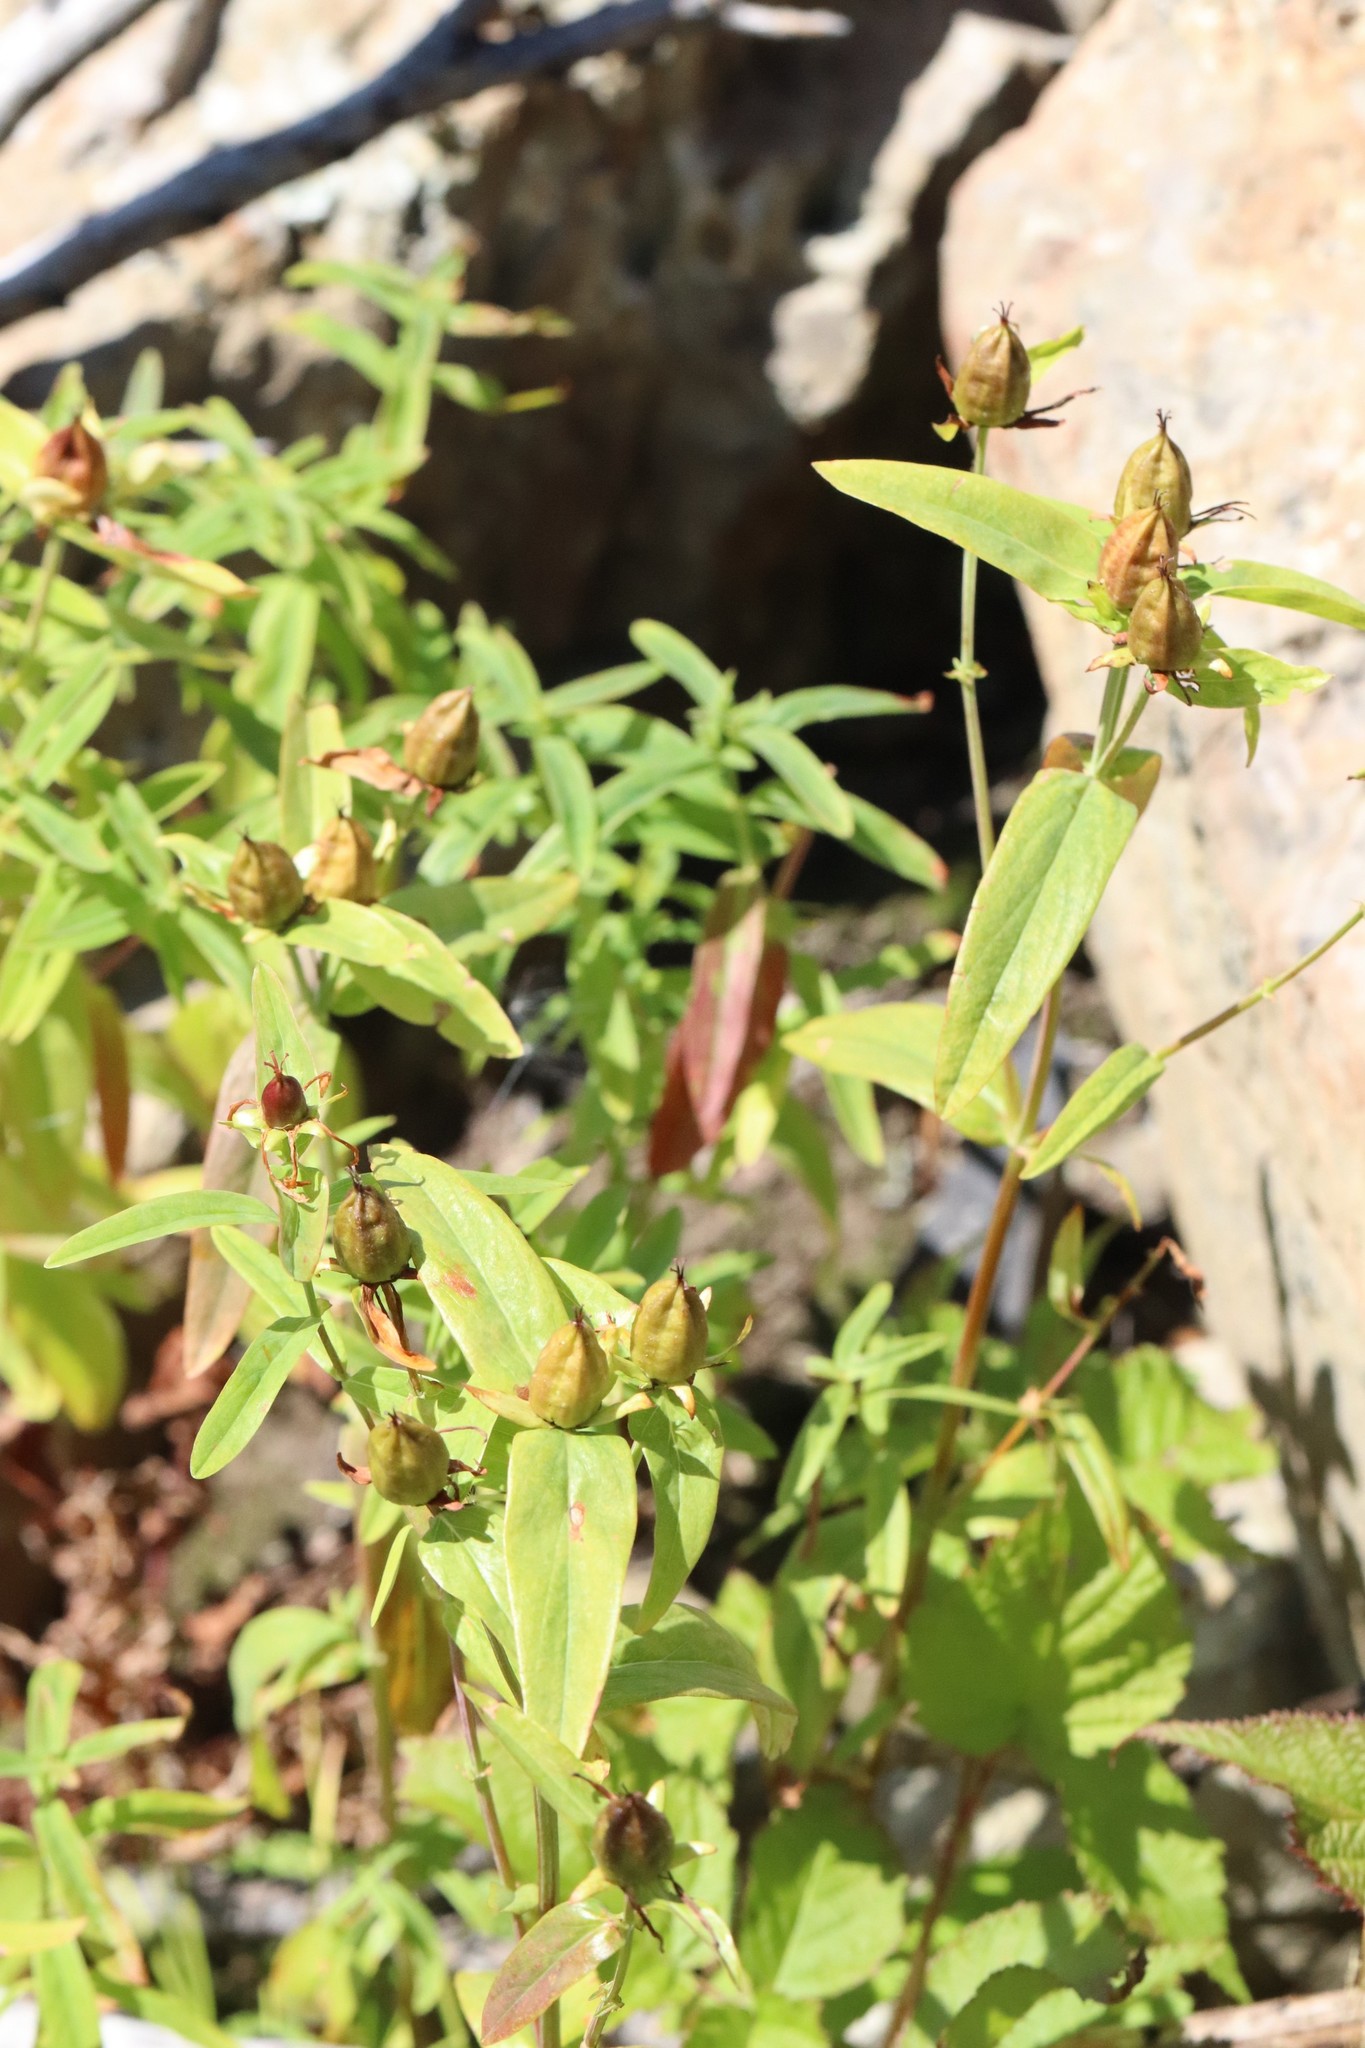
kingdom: Plantae
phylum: Tracheophyta
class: Magnoliopsida
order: Malpighiales
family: Hypericaceae
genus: Hypericum
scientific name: Hypericum ascyron
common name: Giant st. john's-wort
